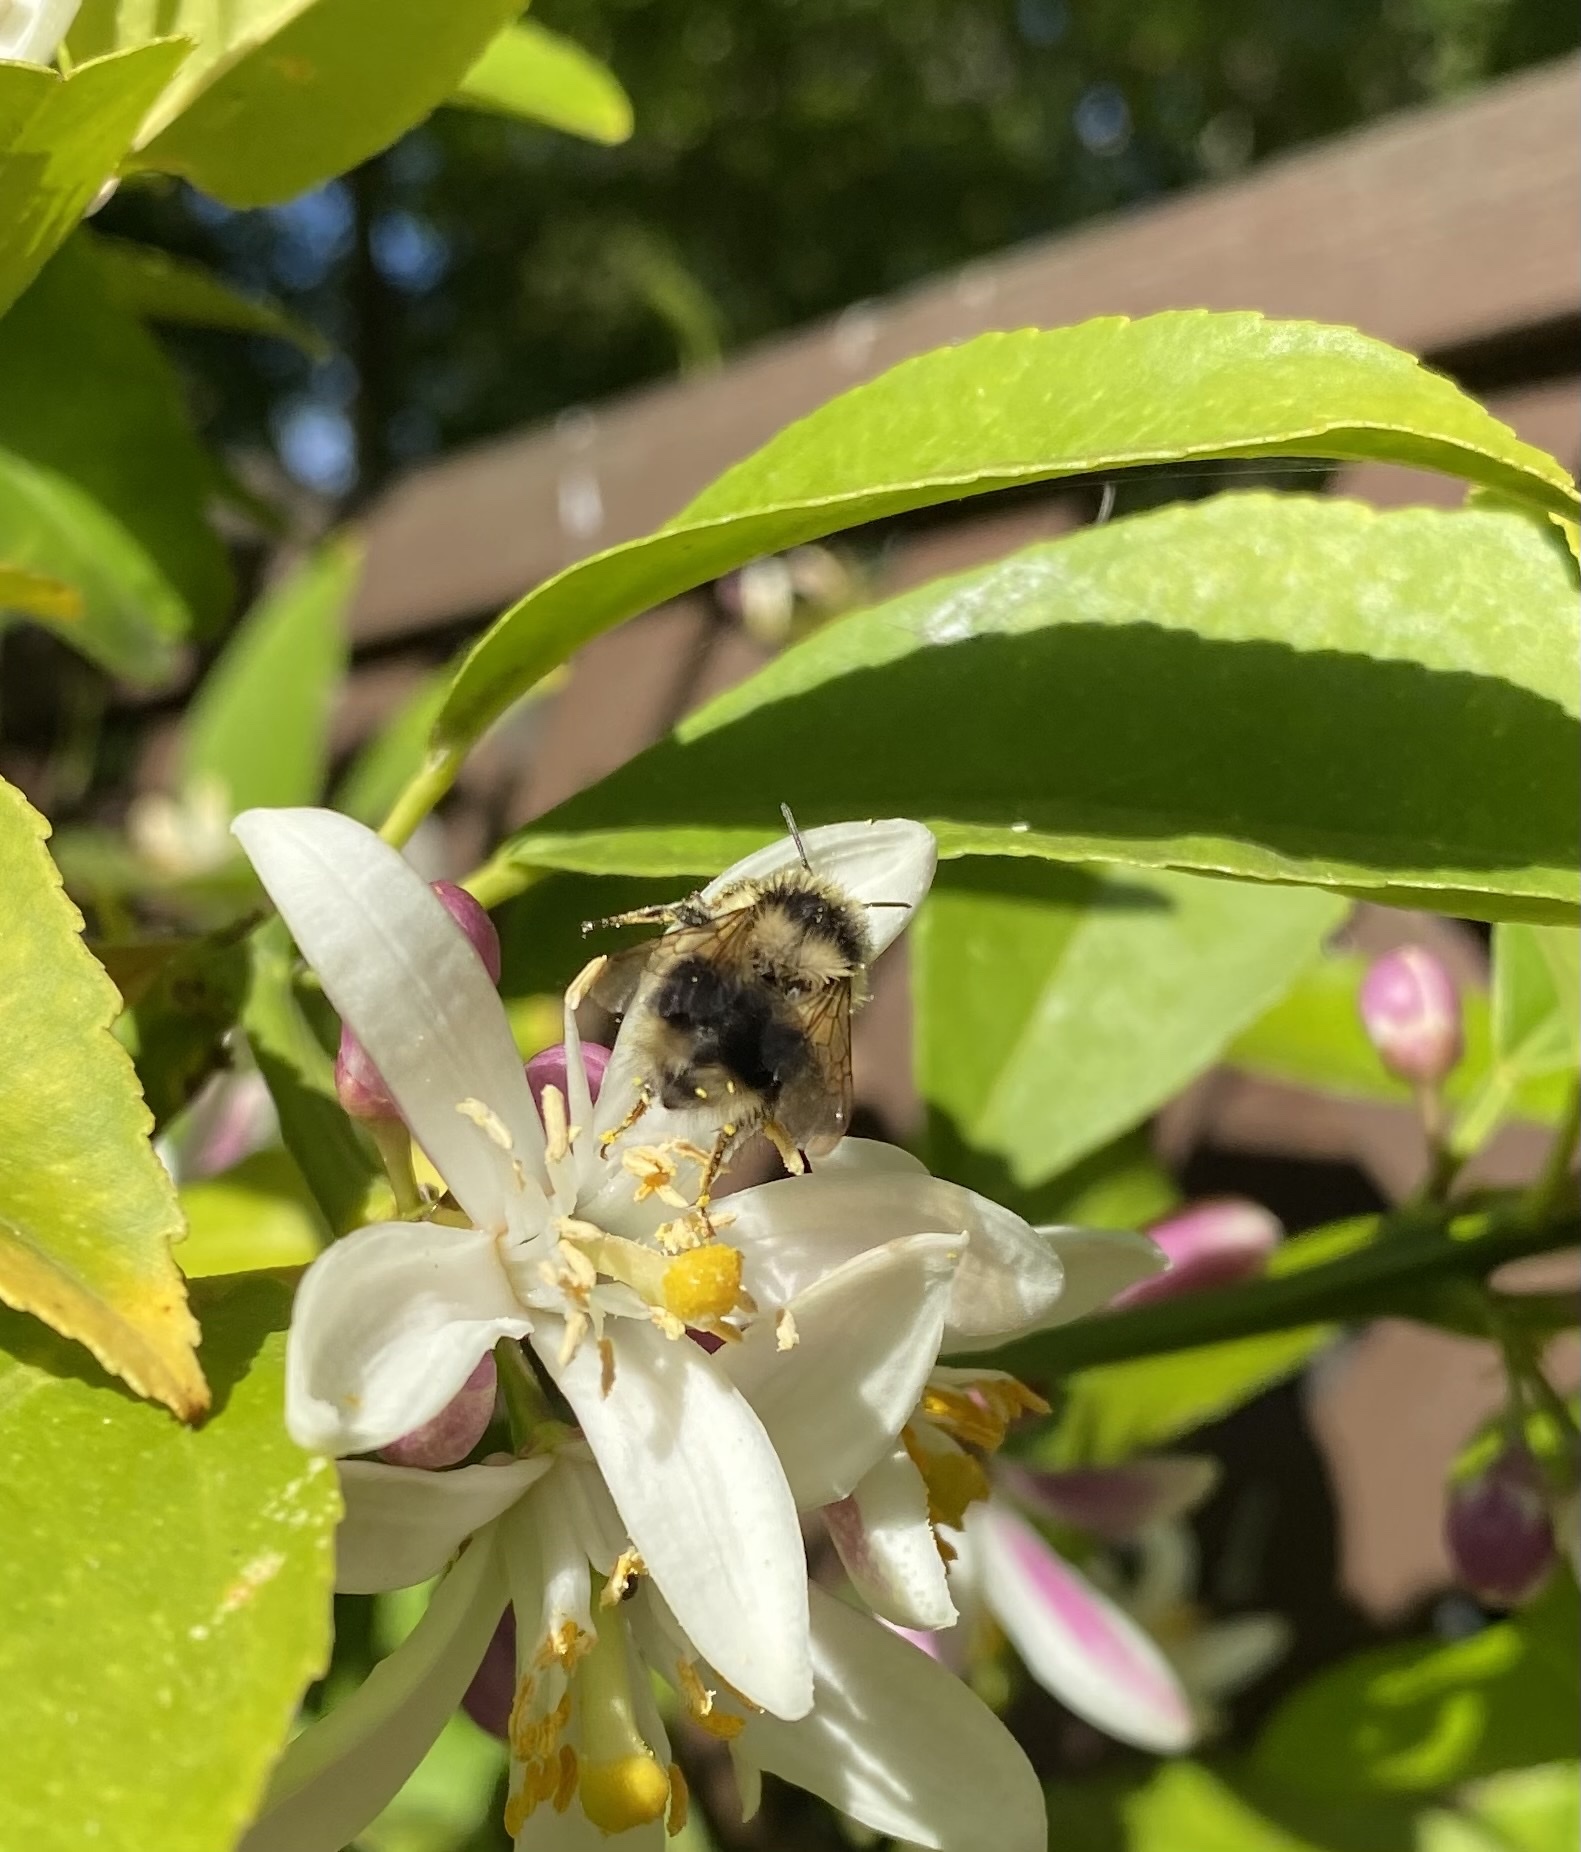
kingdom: Animalia
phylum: Arthropoda
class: Insecta
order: Hymenoptera
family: Apidae
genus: Bombus
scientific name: Bombus melanopygus
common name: Black tail bumble bee
